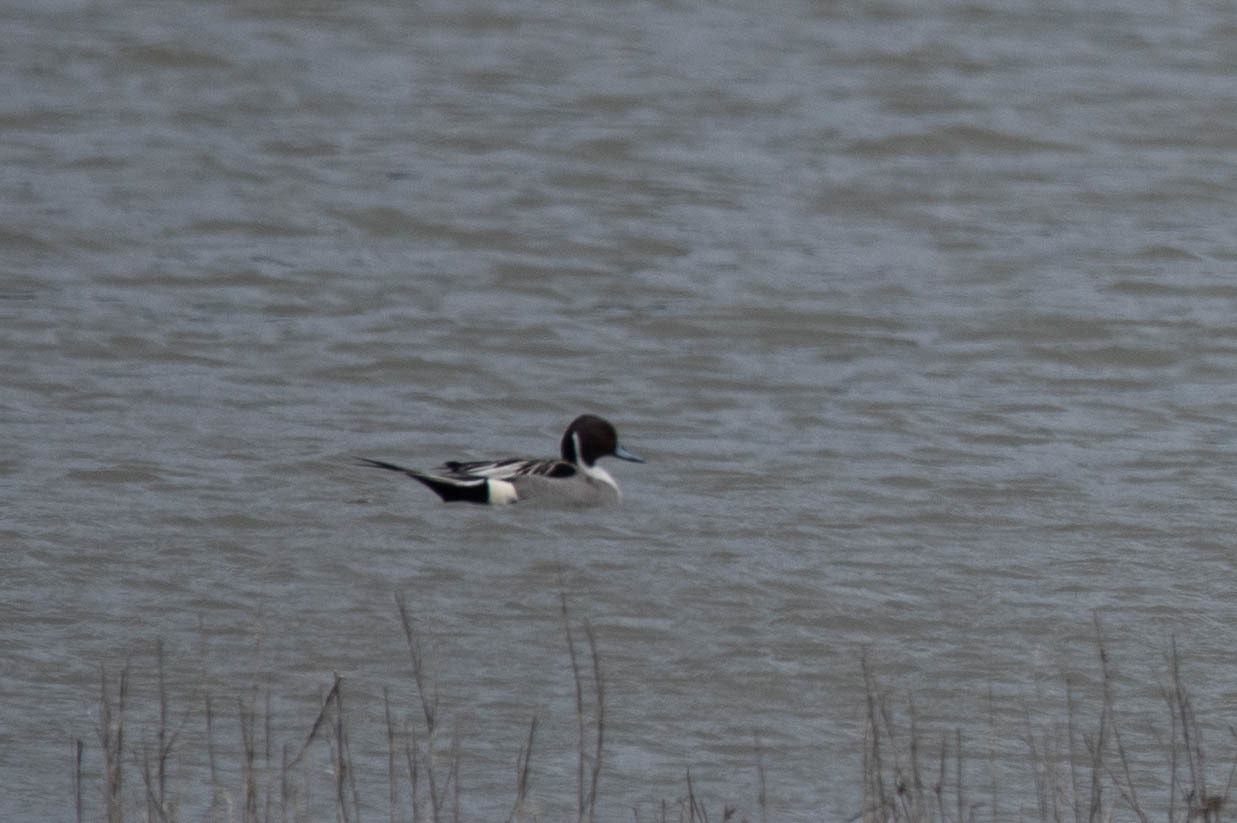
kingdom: Animalia
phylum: Chordata
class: Aves
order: Anseriformes
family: Anatidae
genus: Anas
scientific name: Anas acuta
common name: Northern pintail
